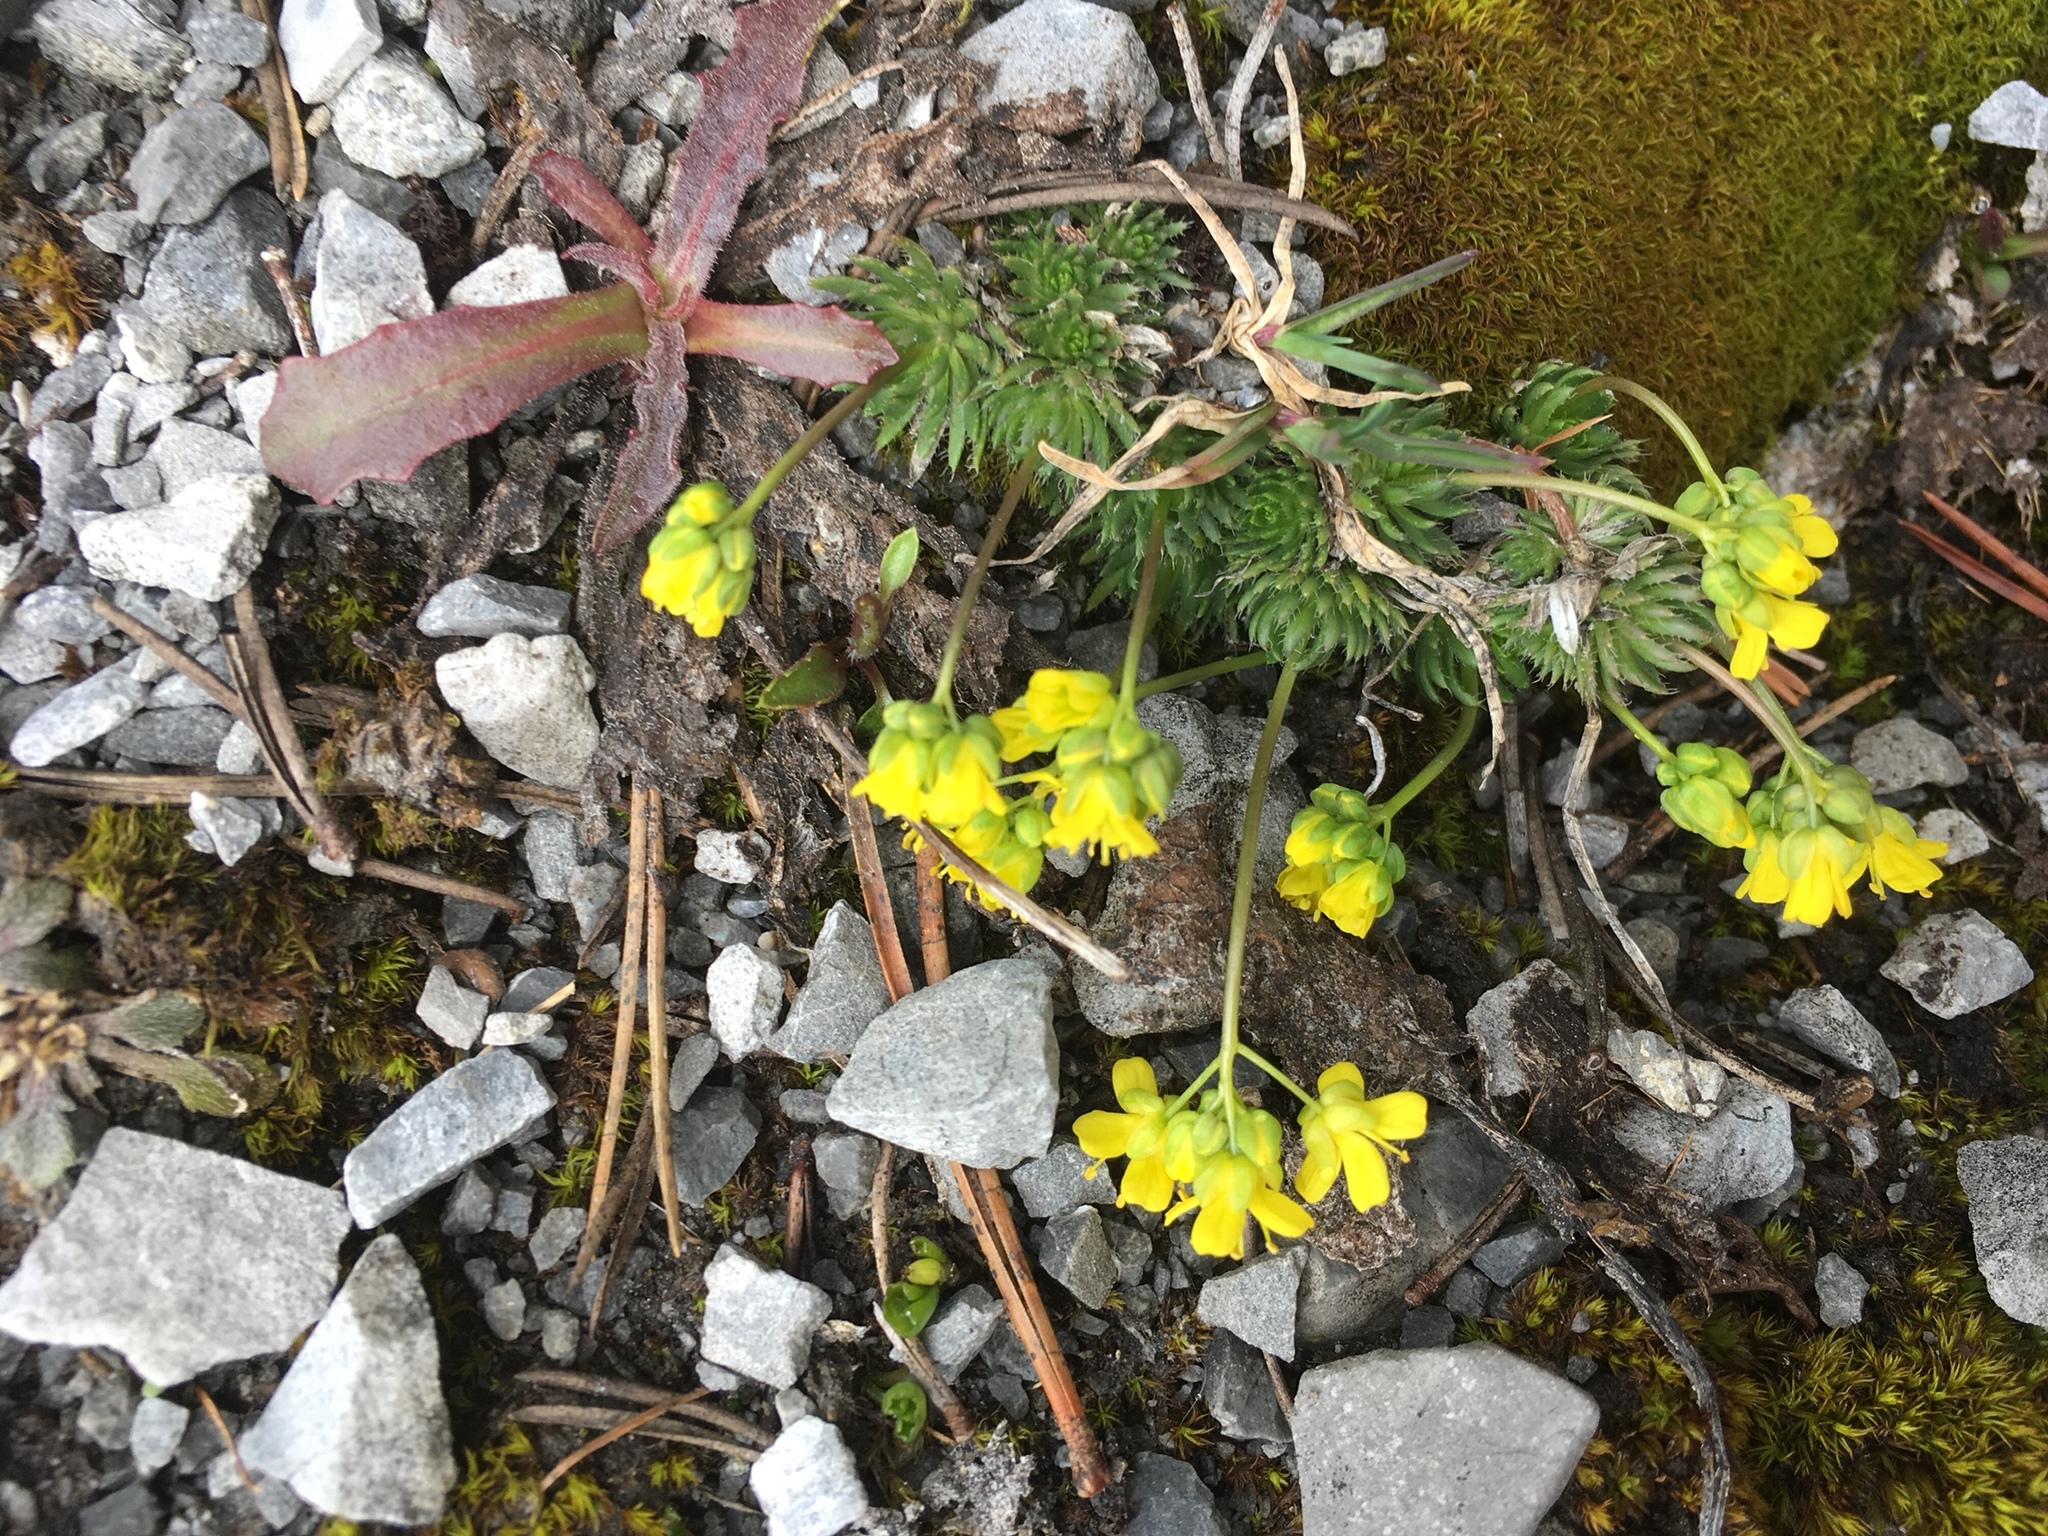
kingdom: Plantae
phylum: Tracheophyta
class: Magnoliopsida
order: Brassicales
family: Brassicaceae
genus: Draba
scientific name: Draba aizoides
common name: Yellow whitlowgrass
